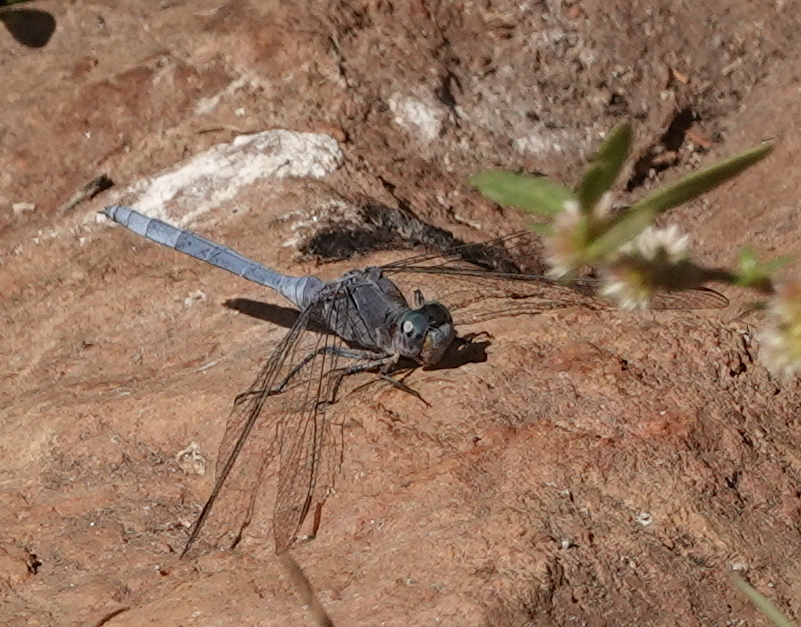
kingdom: Animalia
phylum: Arthropoda
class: Insecta
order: Odonata
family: Libellulidae
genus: Orthetrum
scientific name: Orthetrum chrysostigma
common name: Epaulet skimmer
